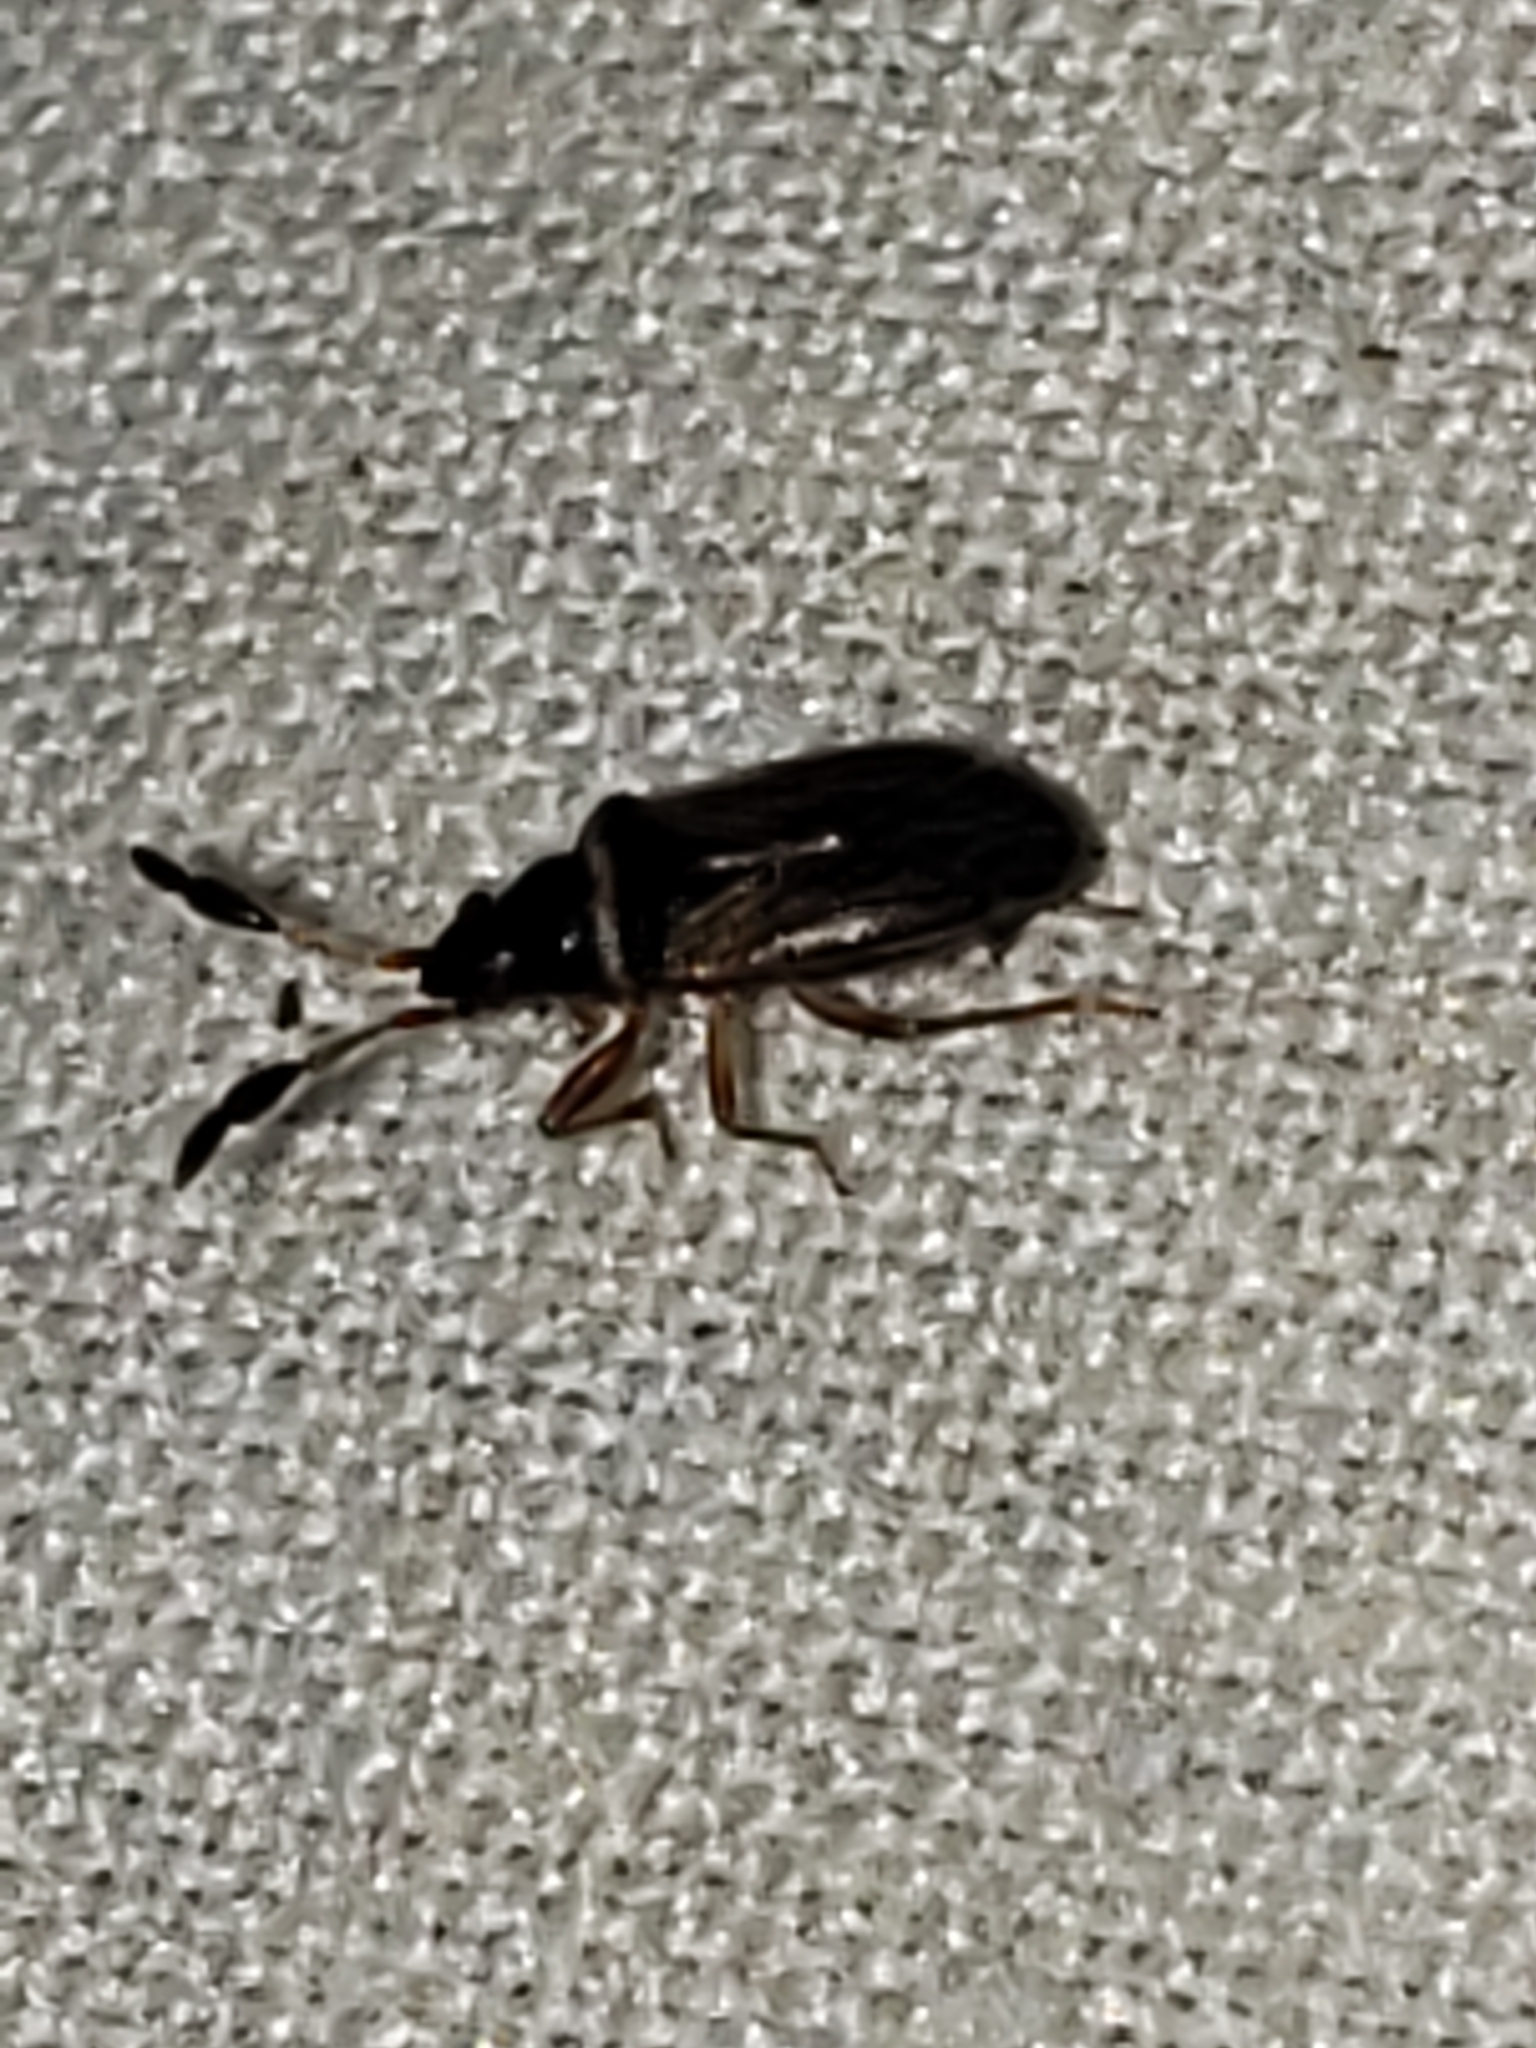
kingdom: Animalia
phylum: Arthropoda
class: Insecta
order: Hemiptera
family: Rhyparochromidae
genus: Ptochiomera
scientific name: Ptochiomera nodosa
